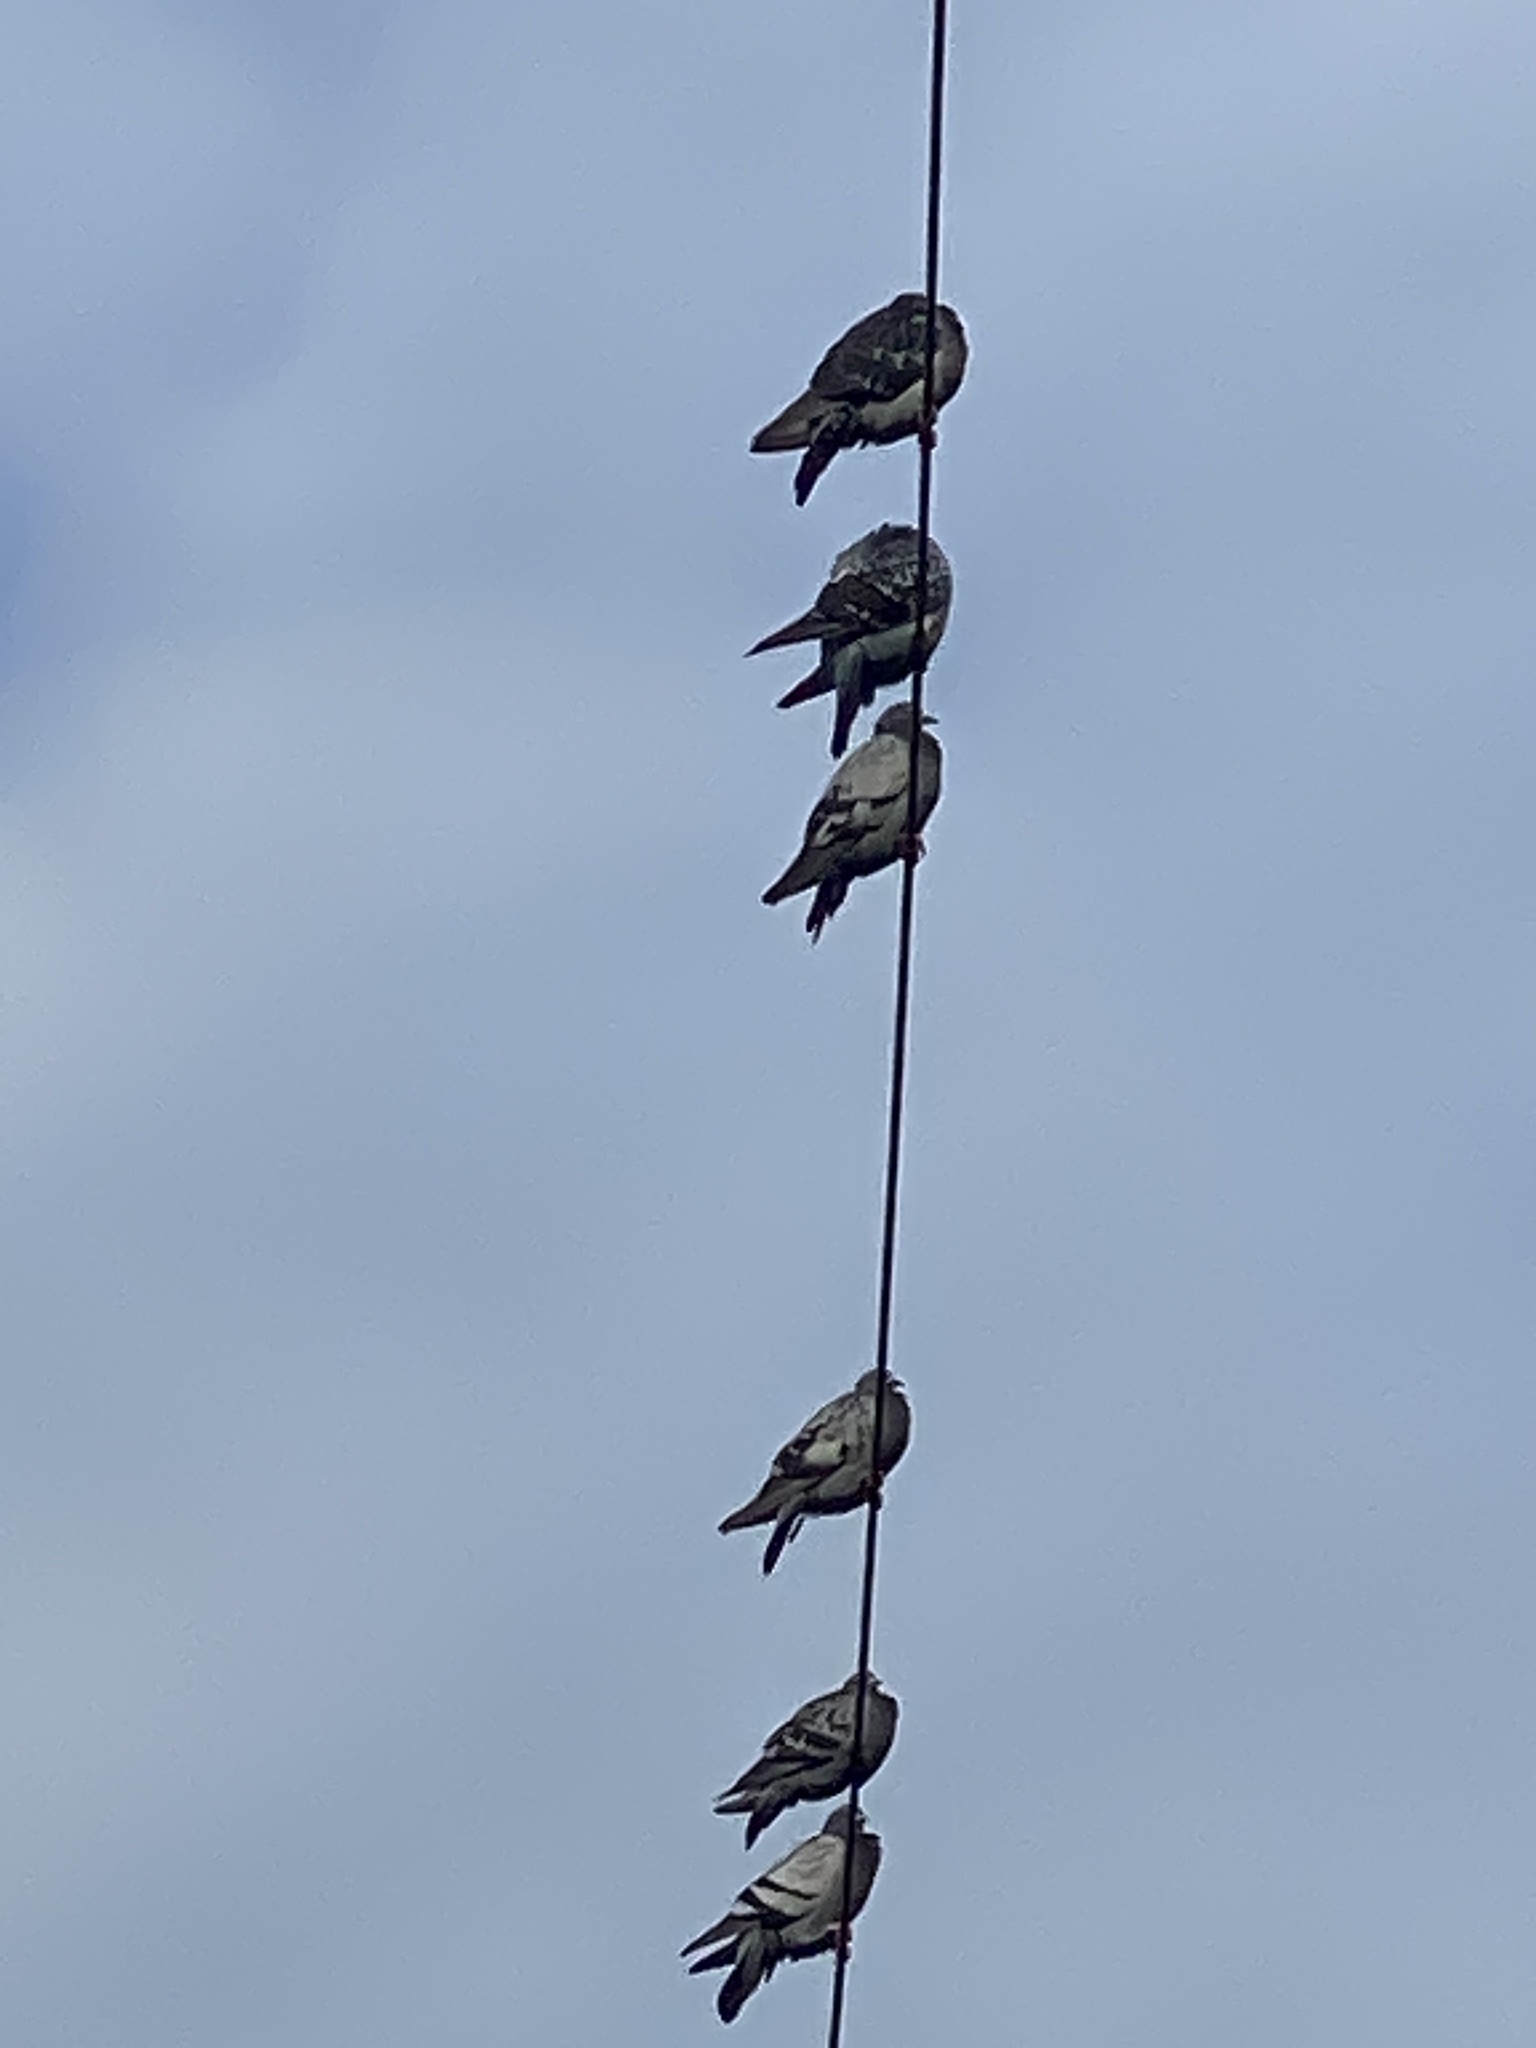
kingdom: Animalia
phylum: Chordata
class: Aves
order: Columbiformes
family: Columbidae
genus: Columba
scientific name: Columba livia
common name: Rock pigeon
